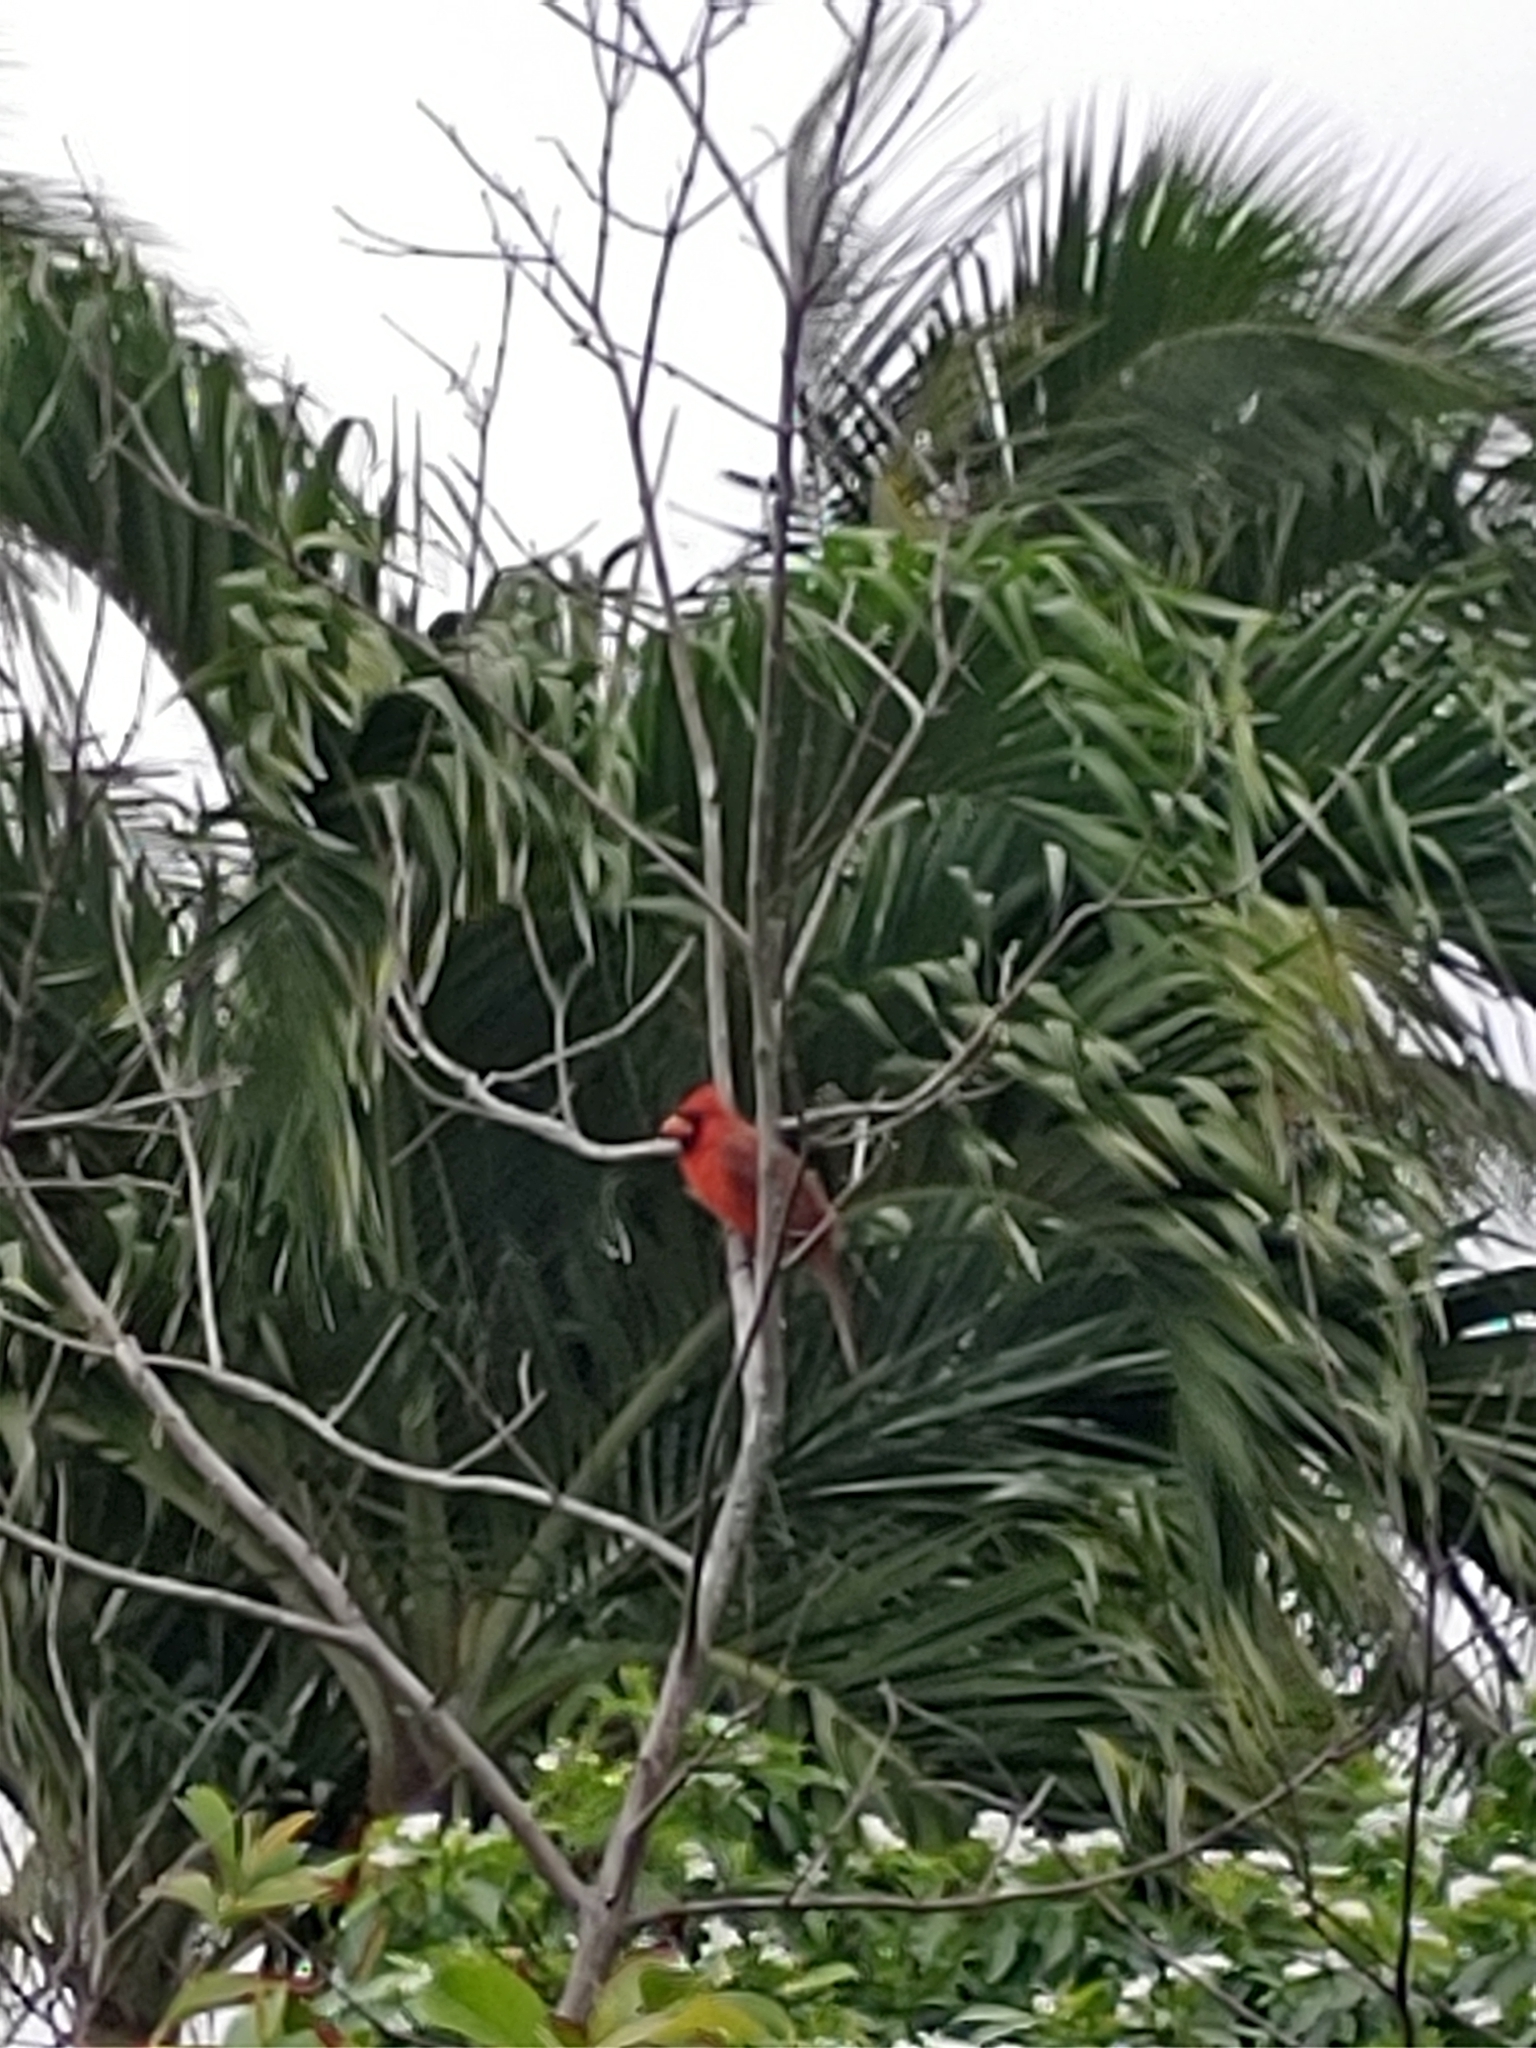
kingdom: Animalia
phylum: Chordata
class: Aves
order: Passeriformes
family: Cardinalidae
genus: Cardinalis
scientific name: Cardinalis cardinalis
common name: Northern cardinal
